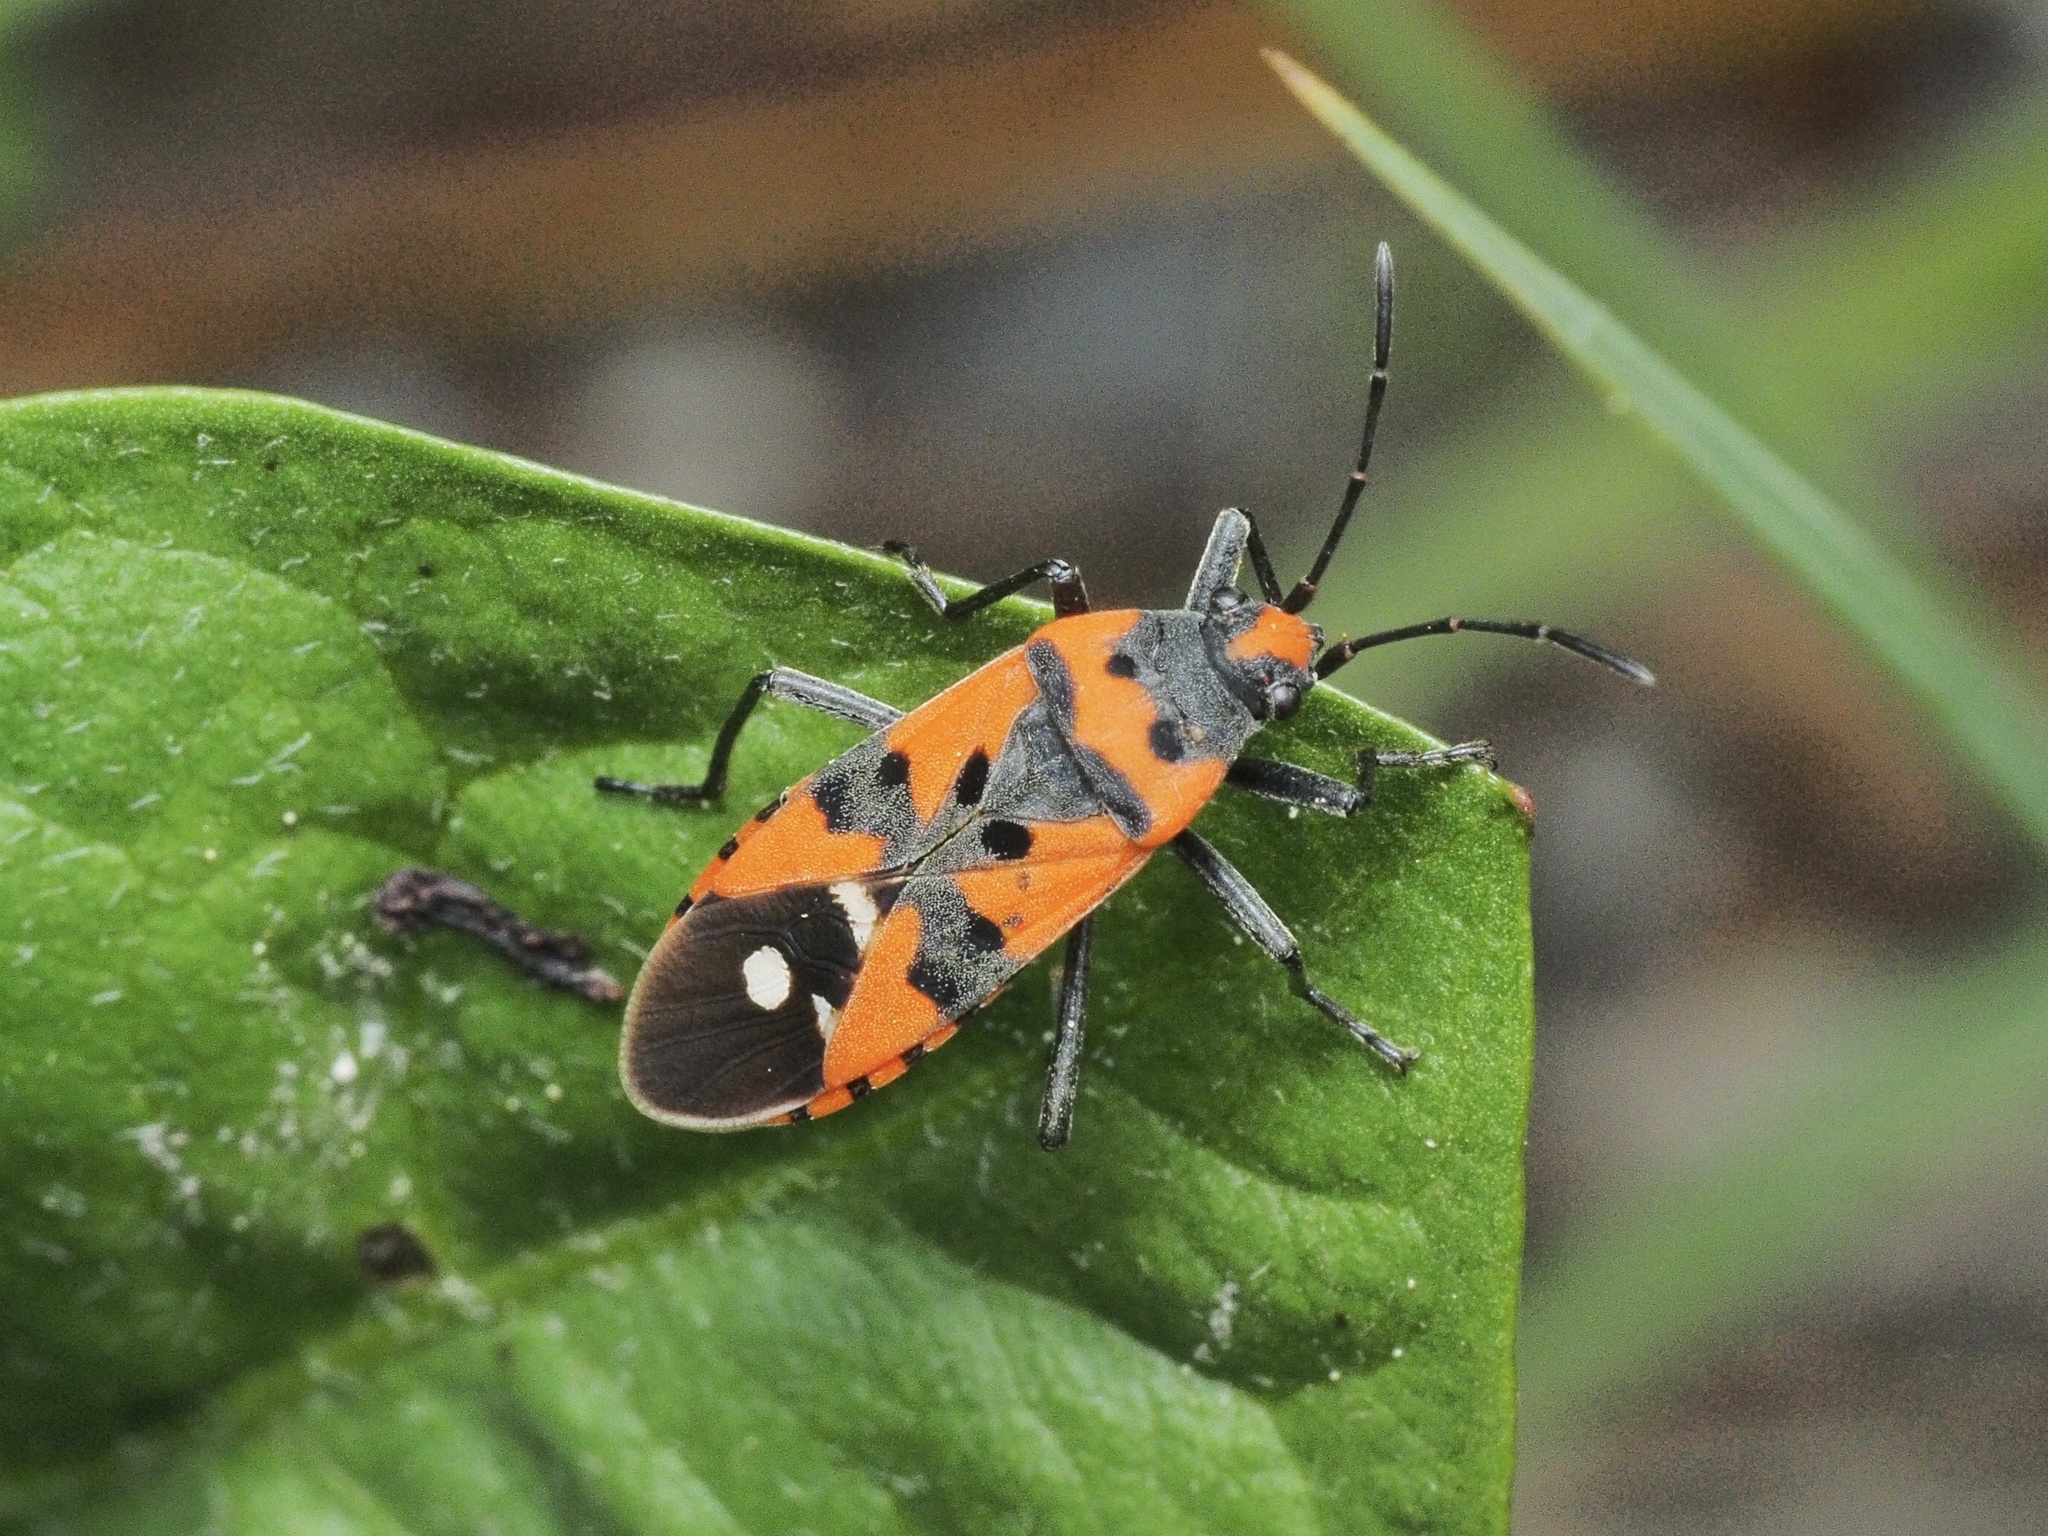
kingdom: Animalia
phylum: Arthropoda
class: Insecta
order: Hemiptera
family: Lygaeidae
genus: Lygaeus
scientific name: Lygaeus equestris
